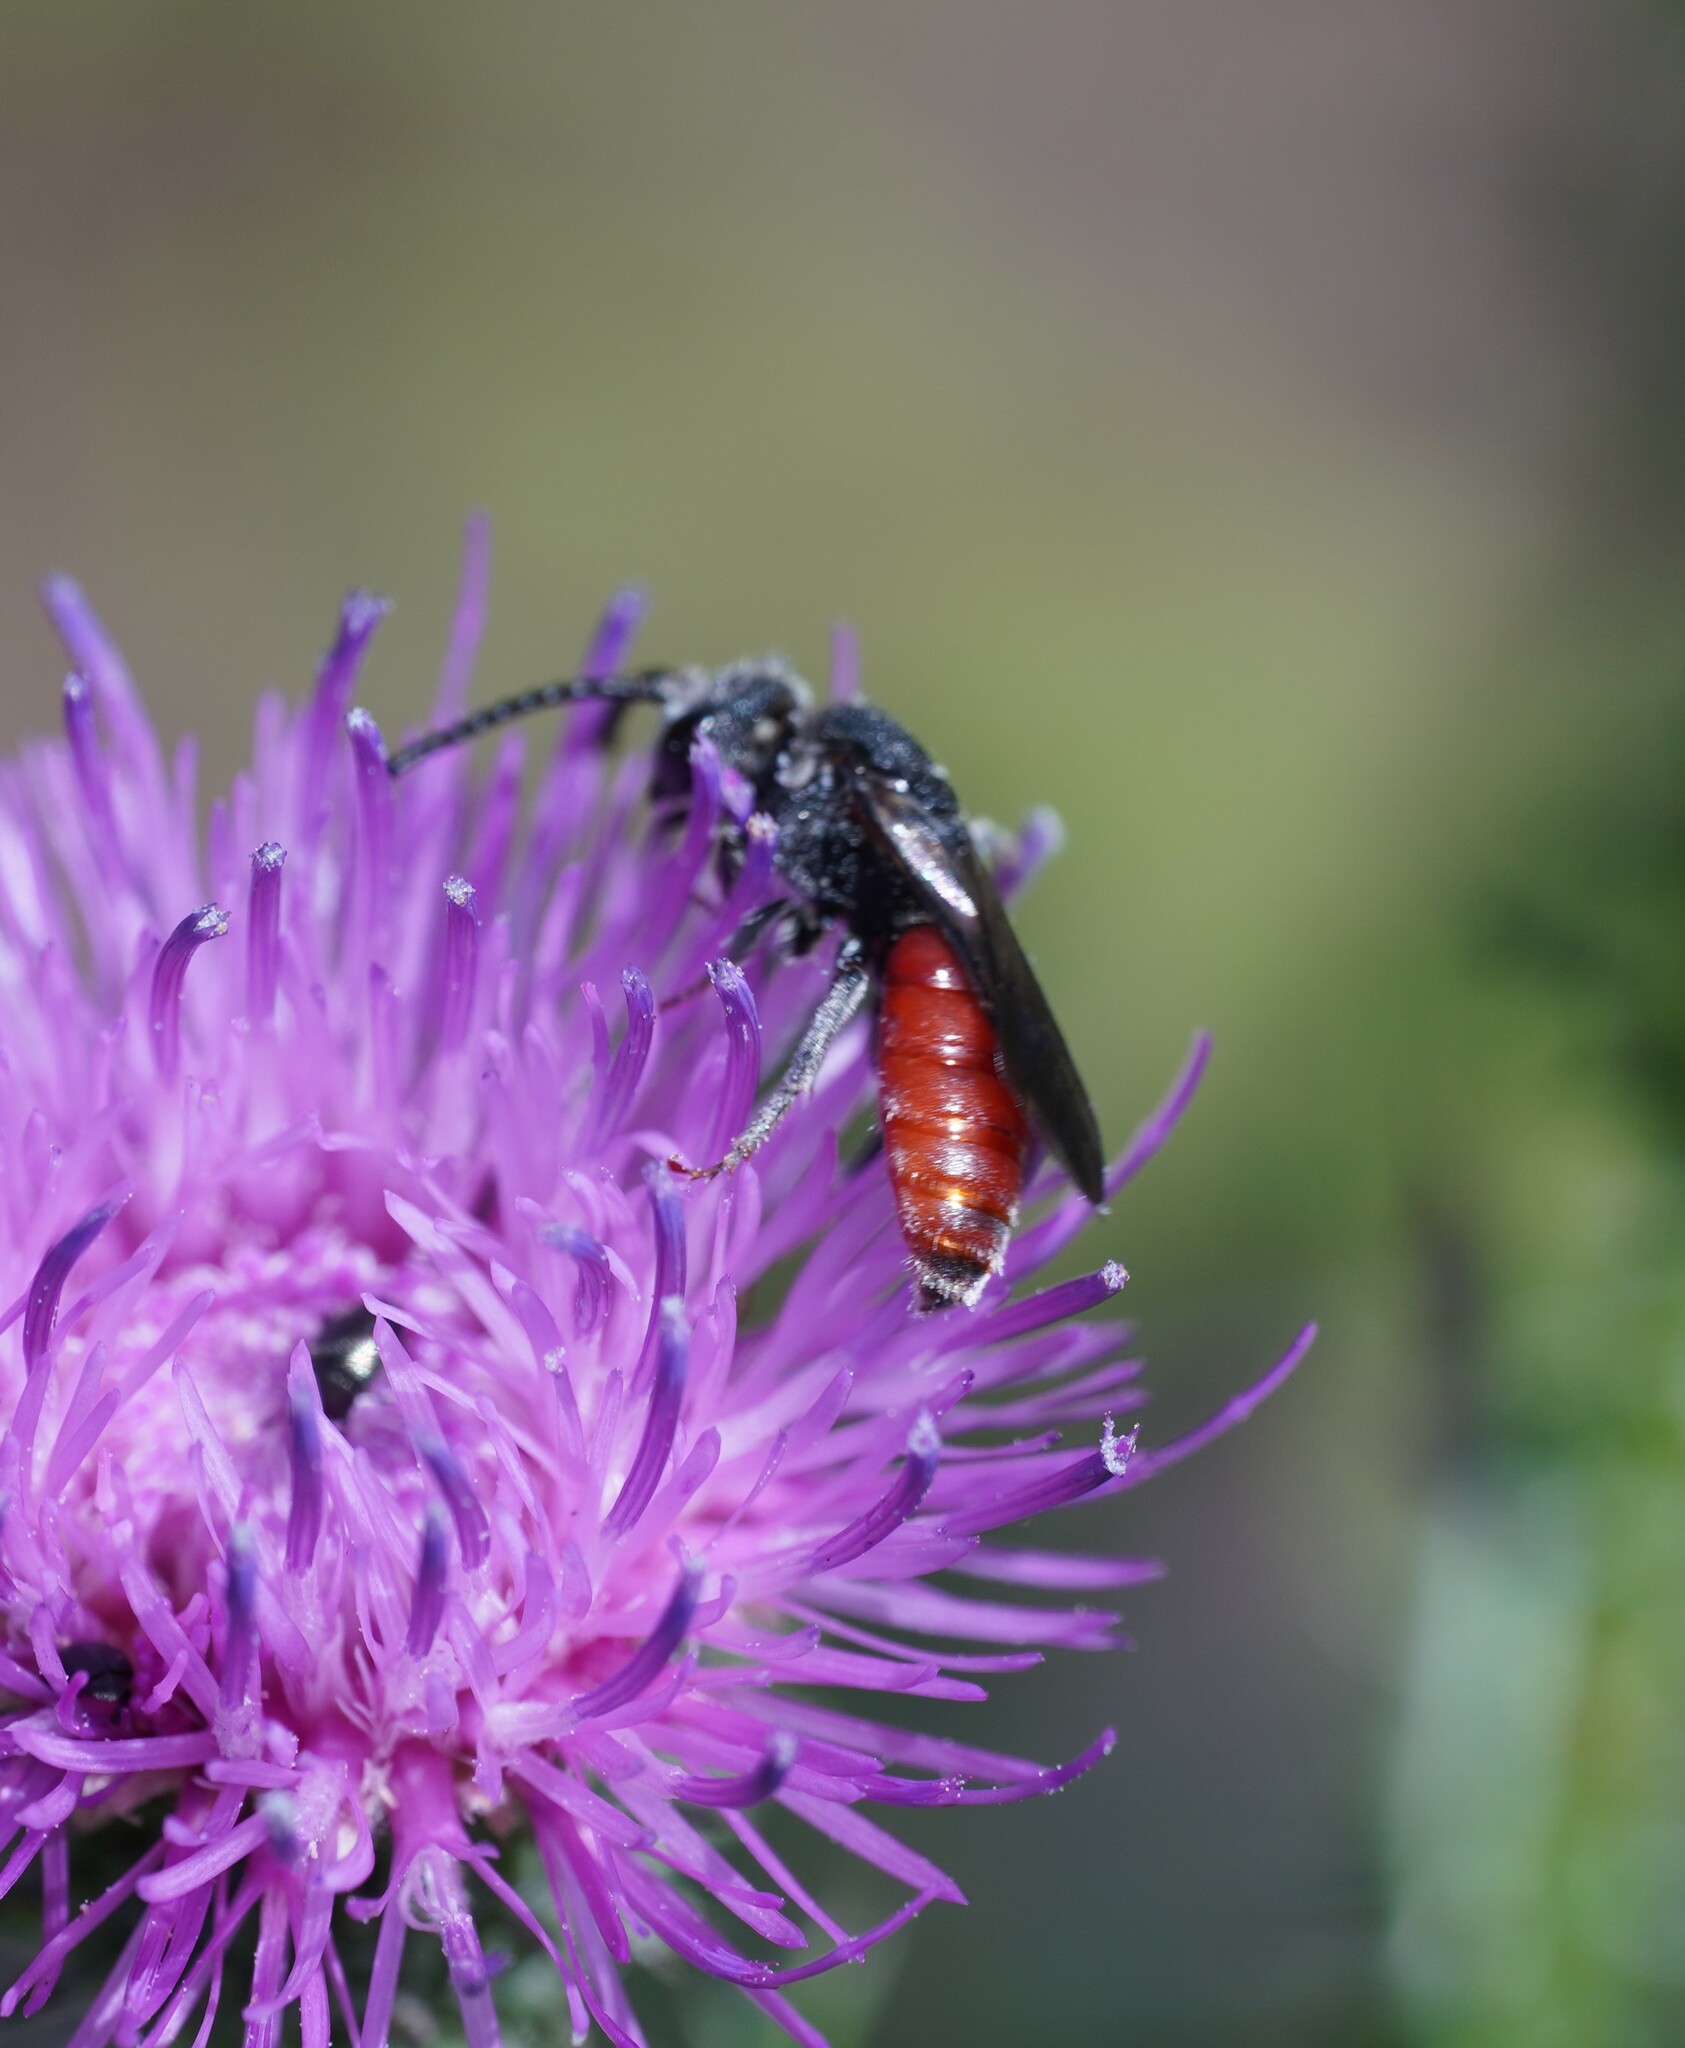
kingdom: Animalia
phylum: Arthropoda
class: Insecta
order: Hymenoptera
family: Halictidae
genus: Sphecodes
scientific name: Sphecodes albilabris
